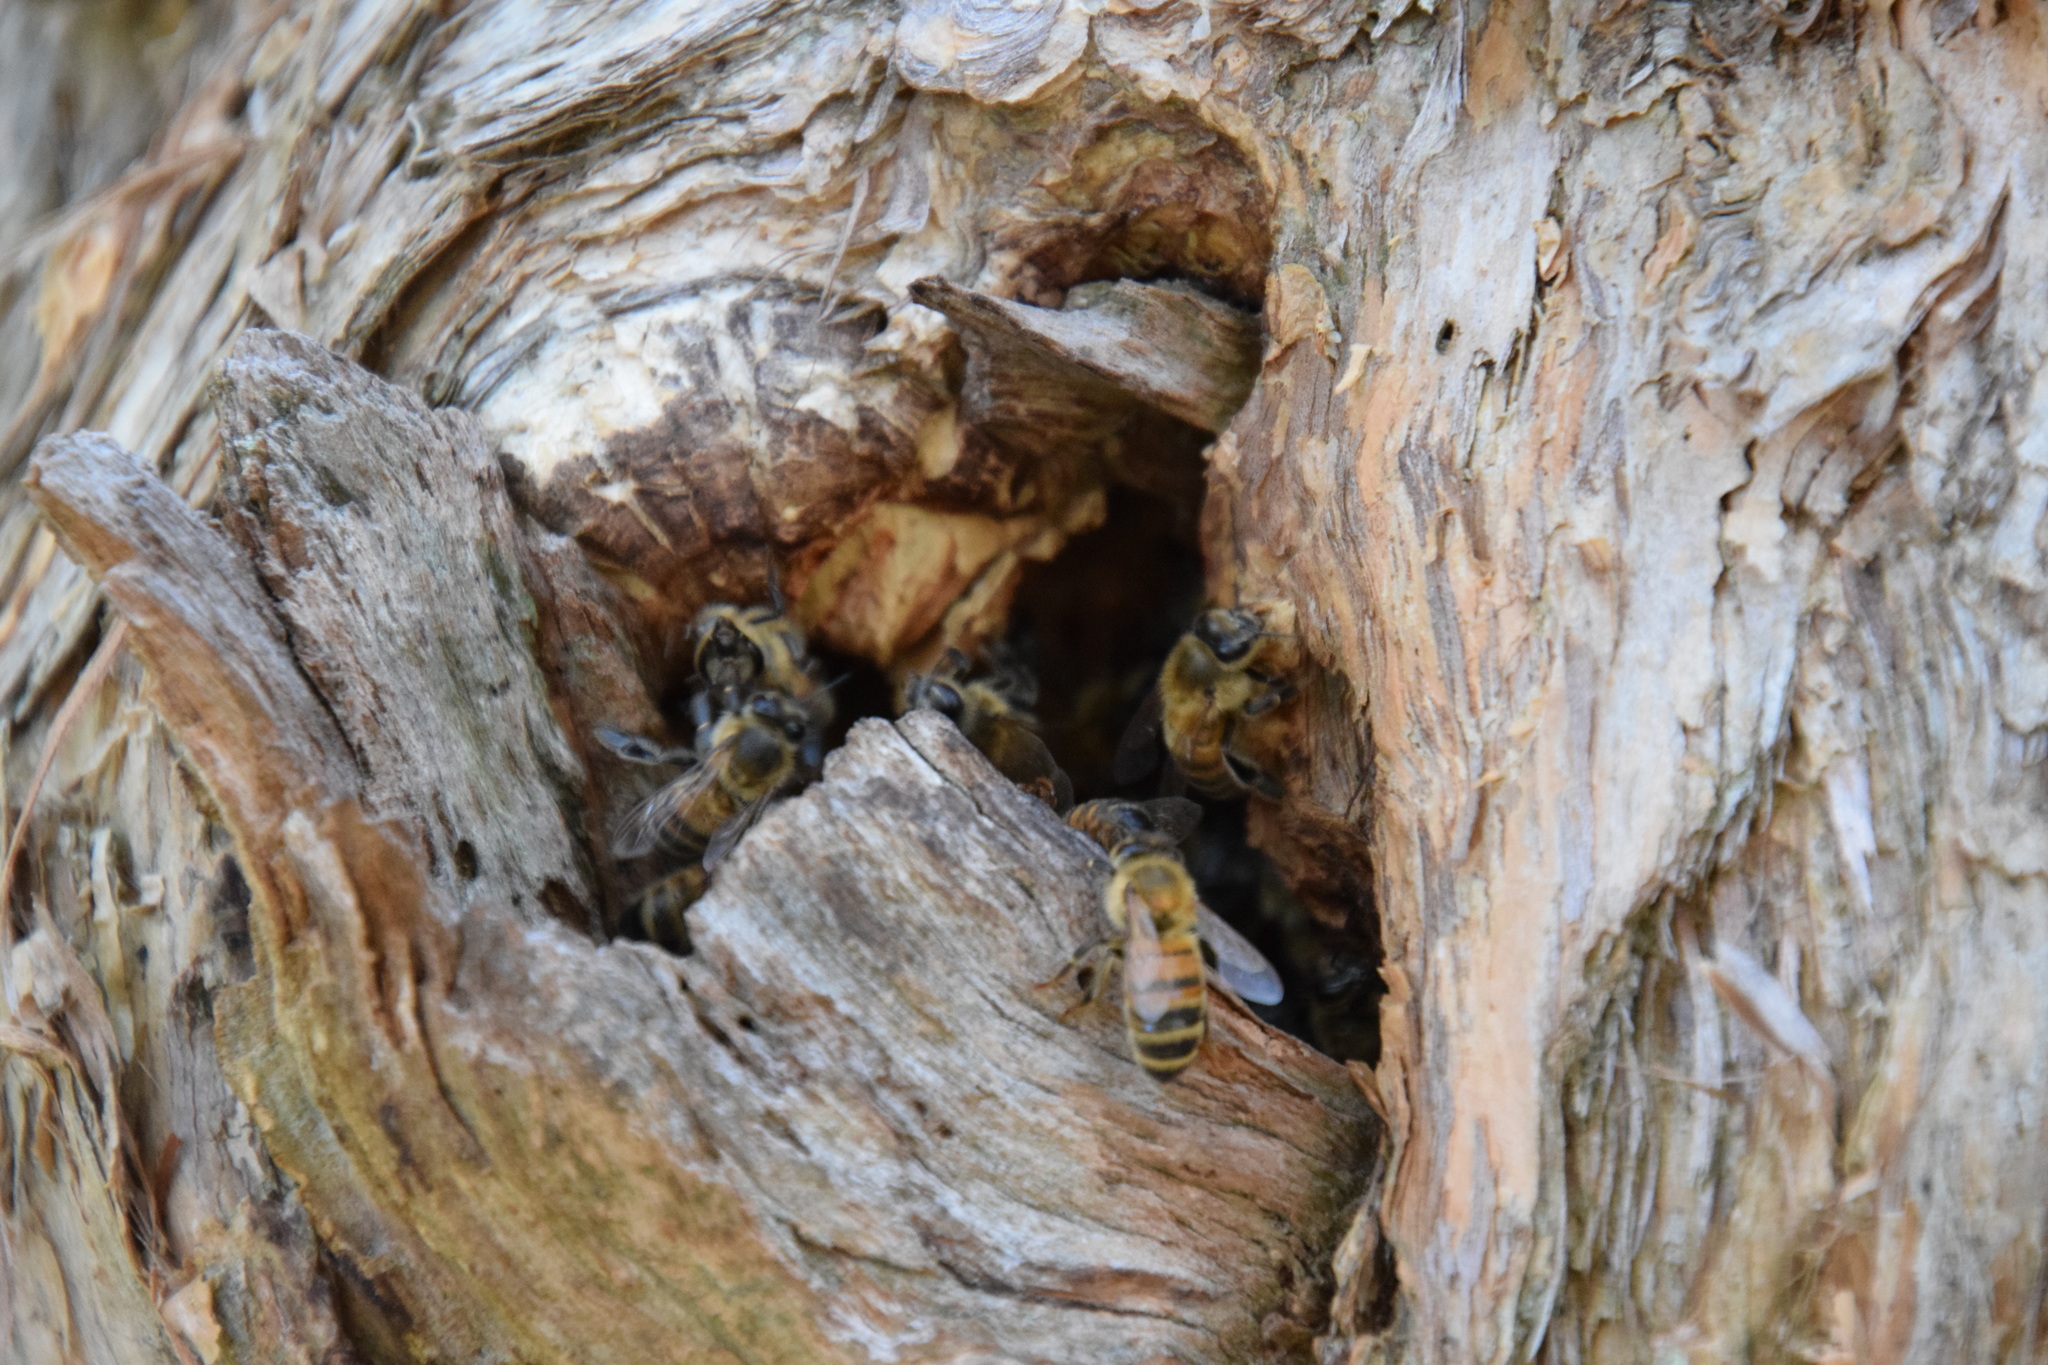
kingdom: Animalia
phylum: Arthropoda
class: Insecta
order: Hymenoptera
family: Apidae
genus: Apis
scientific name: Apis mellifera
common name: Honey bee
